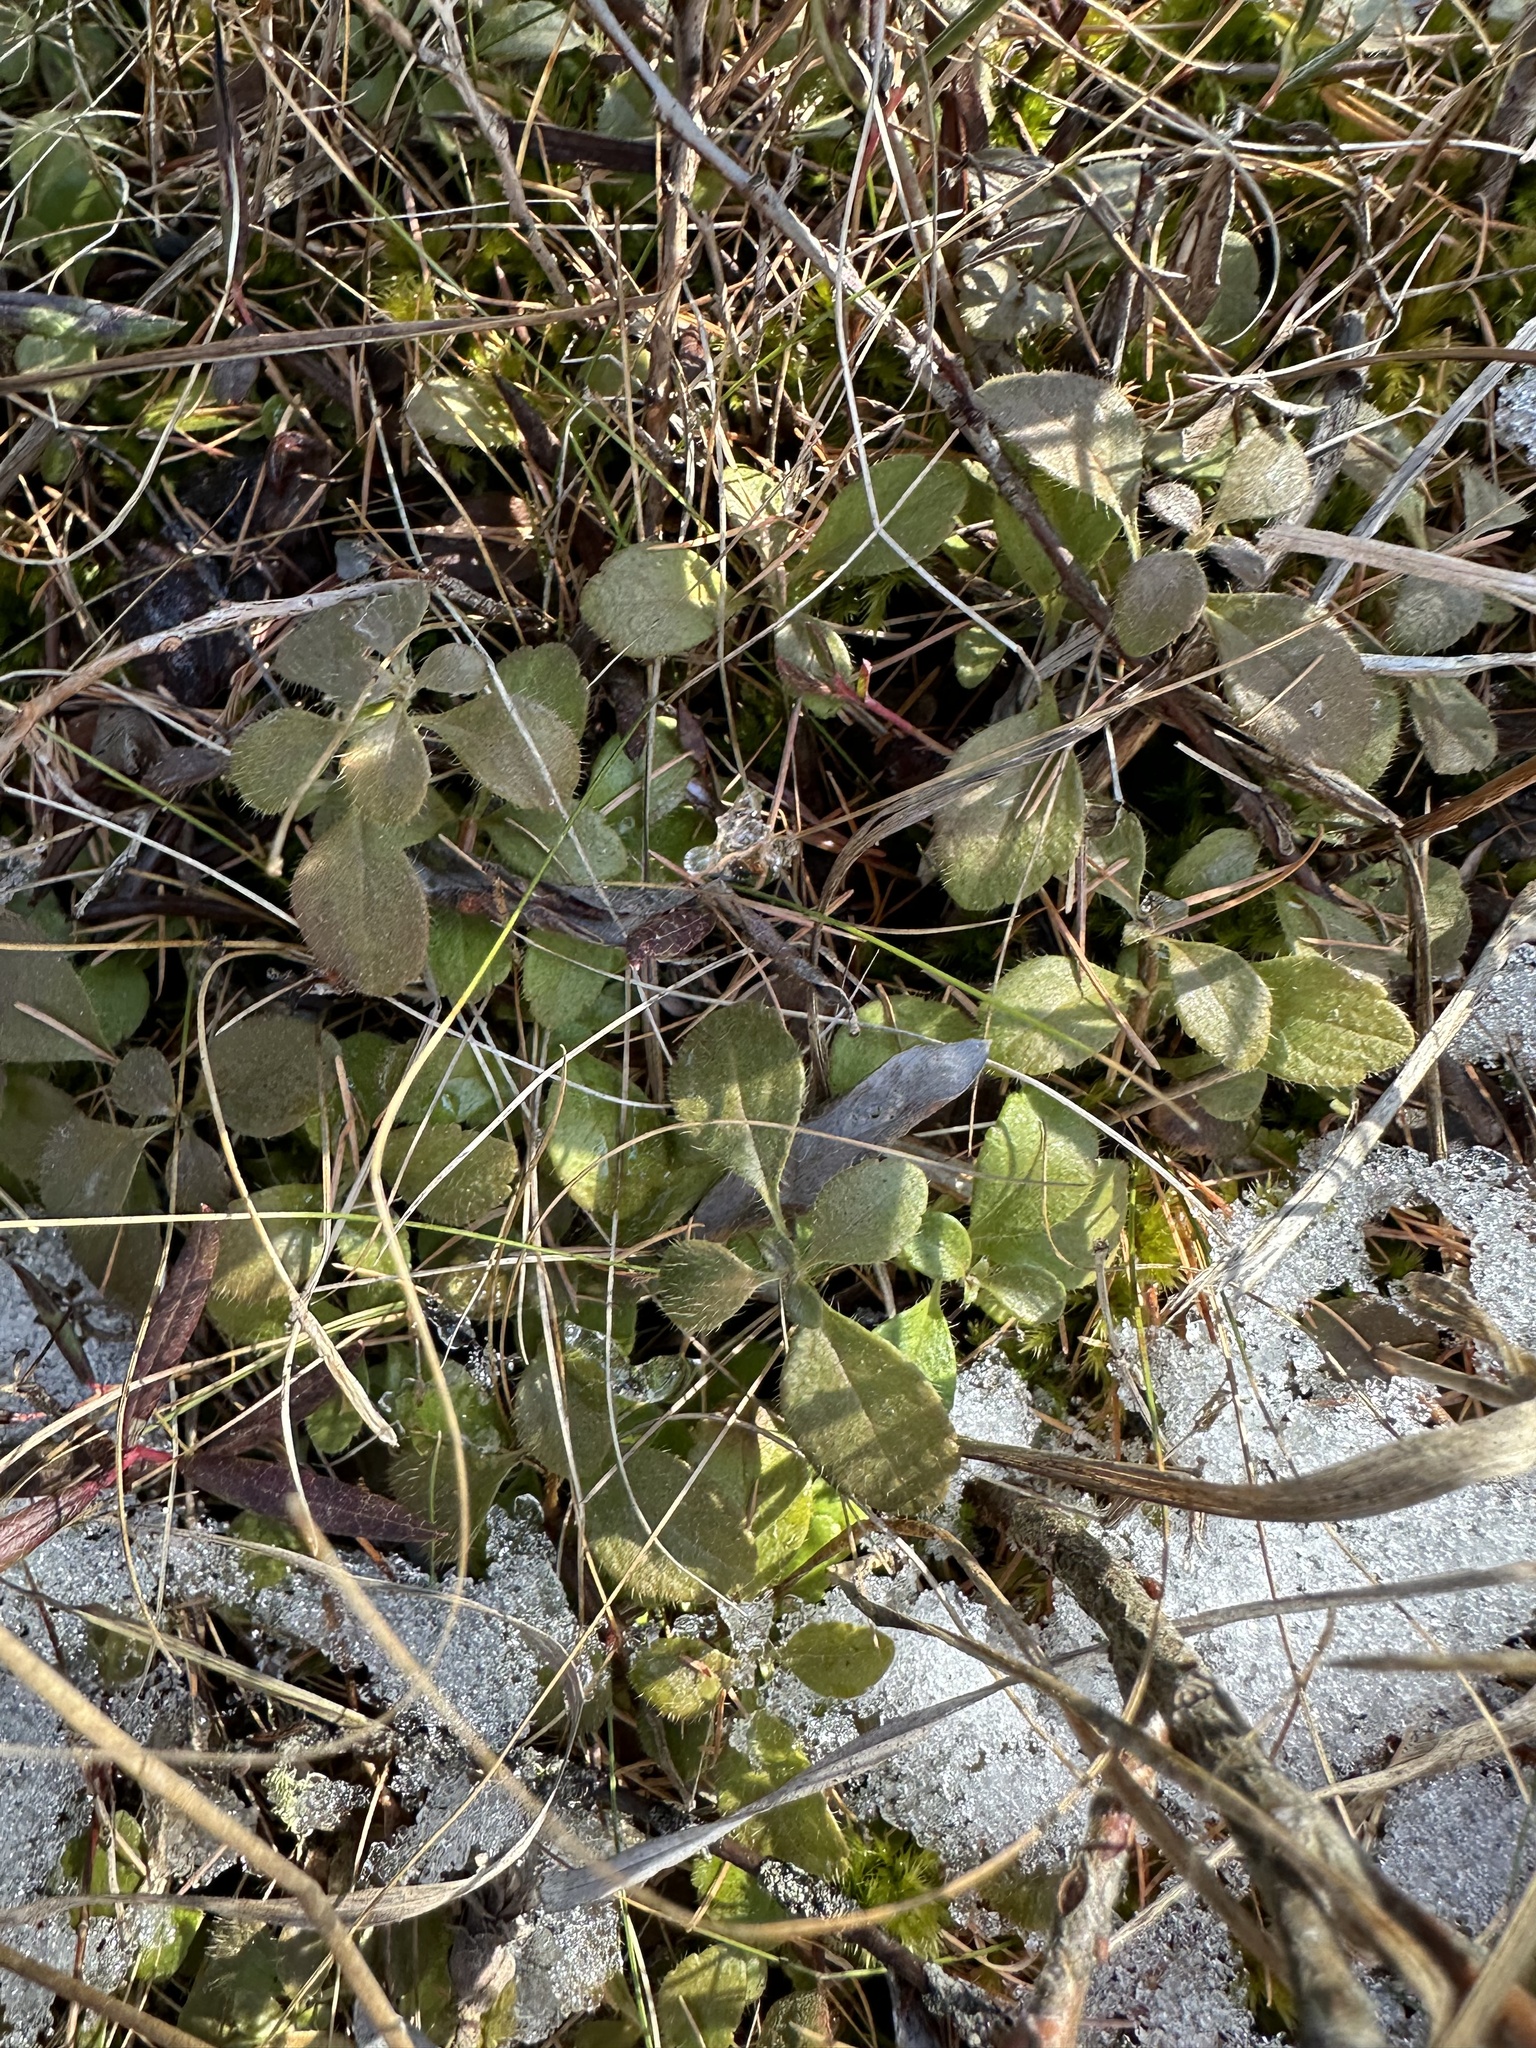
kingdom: Plantae
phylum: Tracheophyta
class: Magnoliopsida
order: Dipsacales
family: Caprifoliaceae
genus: Linnaea
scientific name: Linnaea borealis
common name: Twinflower
